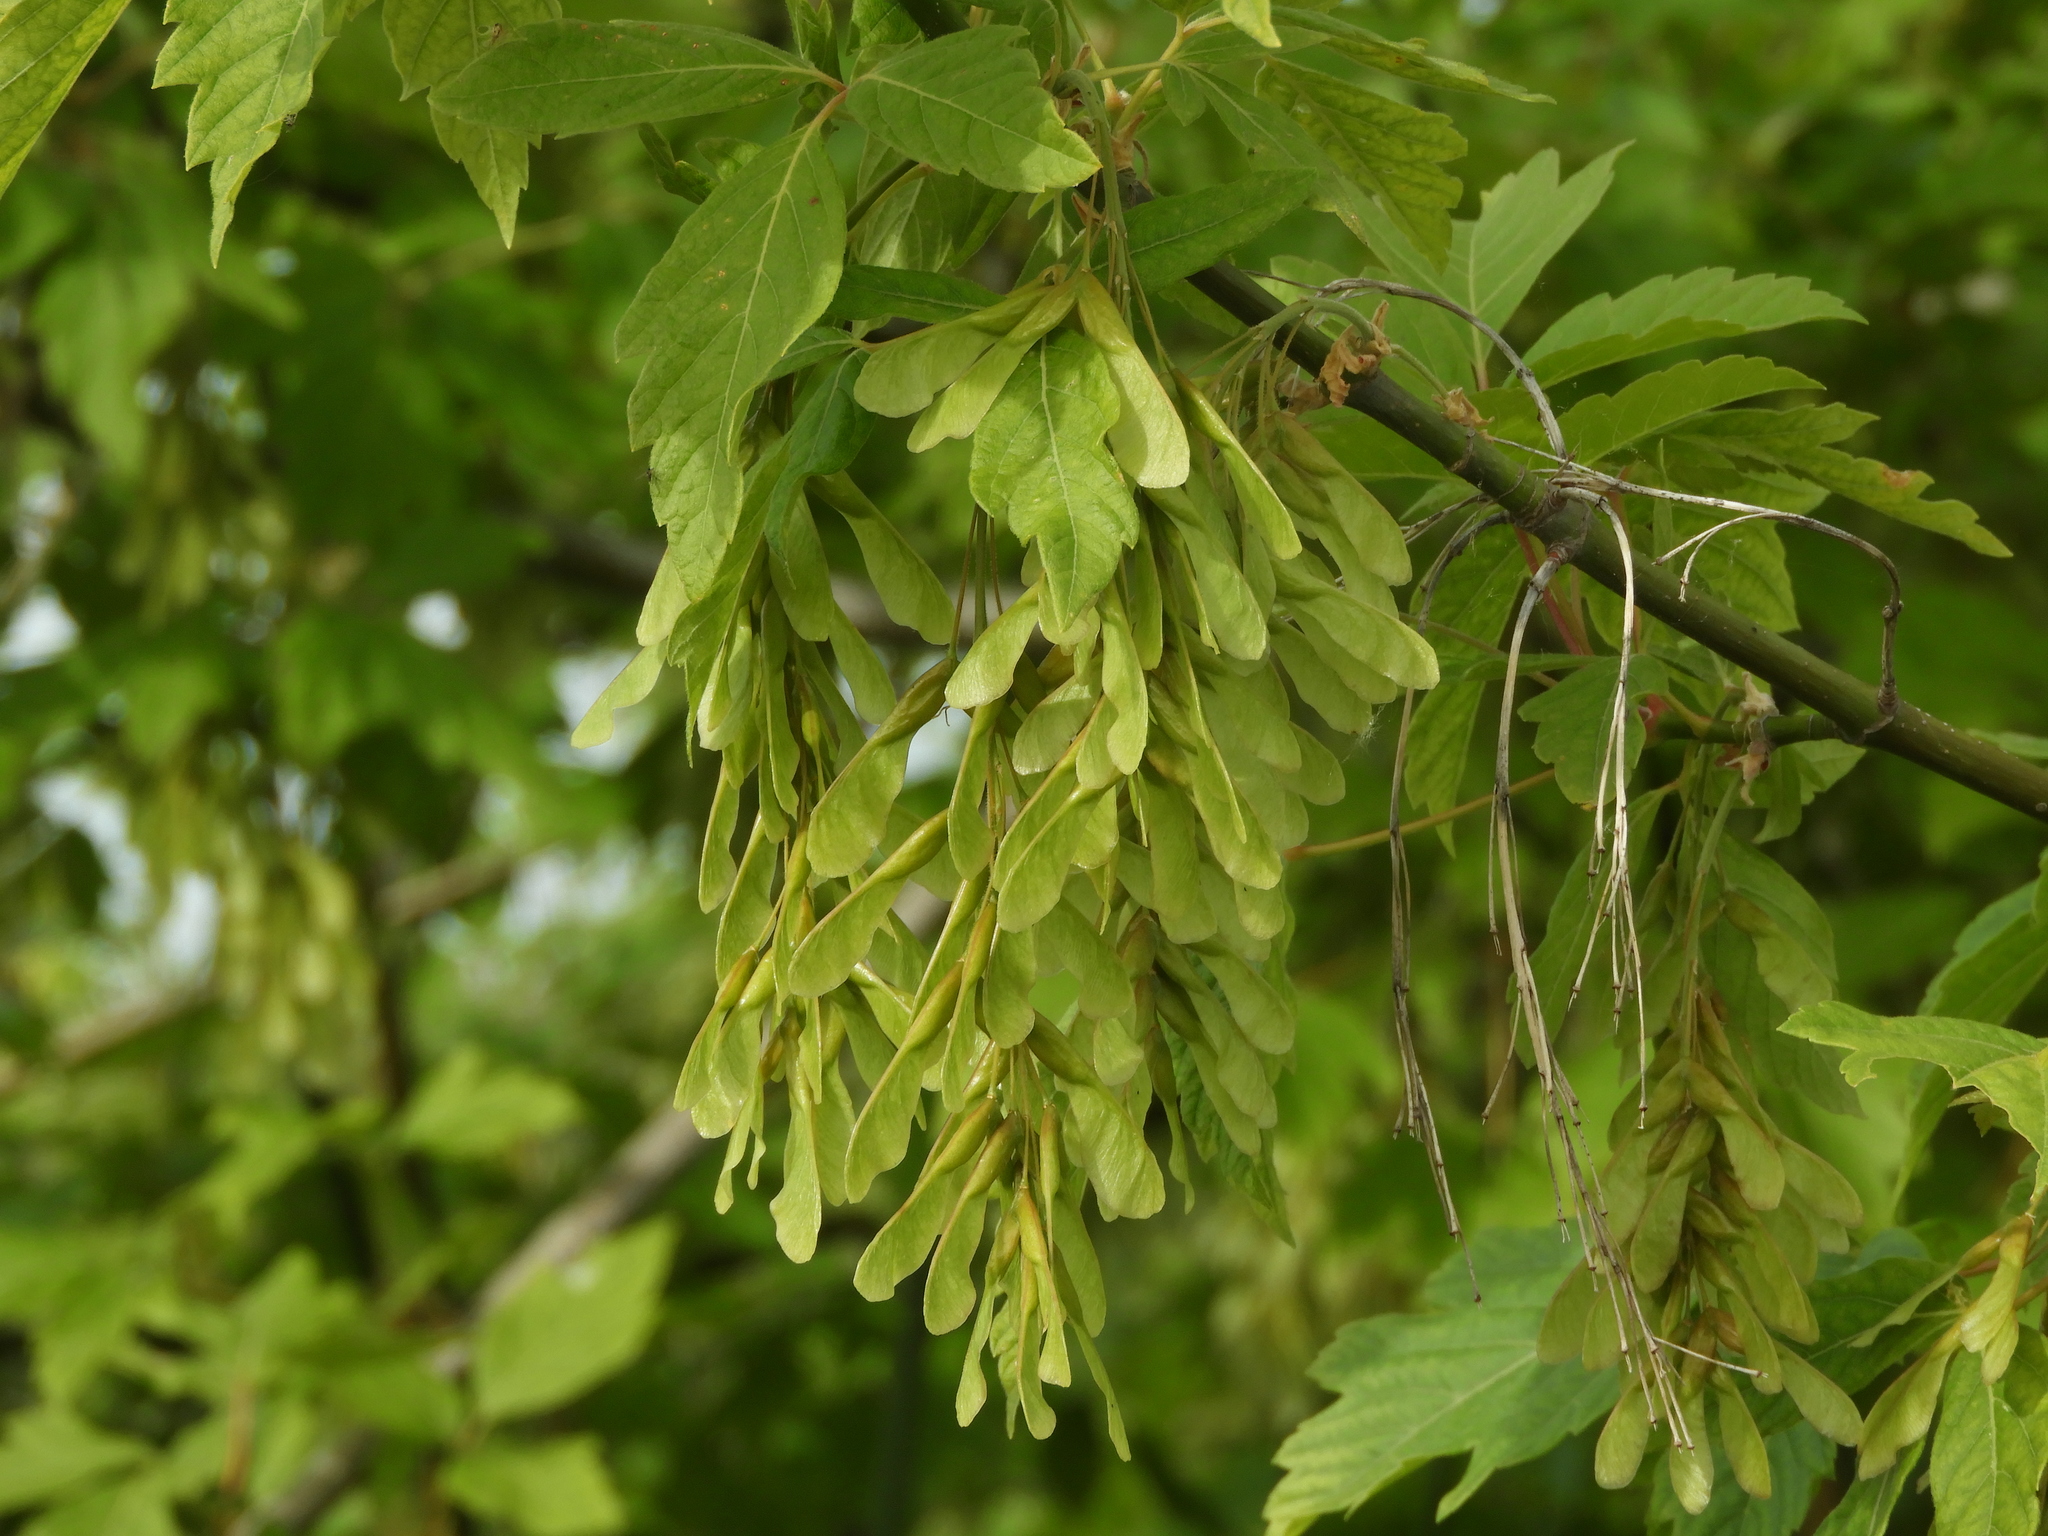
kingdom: Plantae
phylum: Tracheophyta
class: Magnoliopsida
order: Sapindales
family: Sapindaceae
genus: Acer
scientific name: Acer negundo
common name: Ashleaf maple
